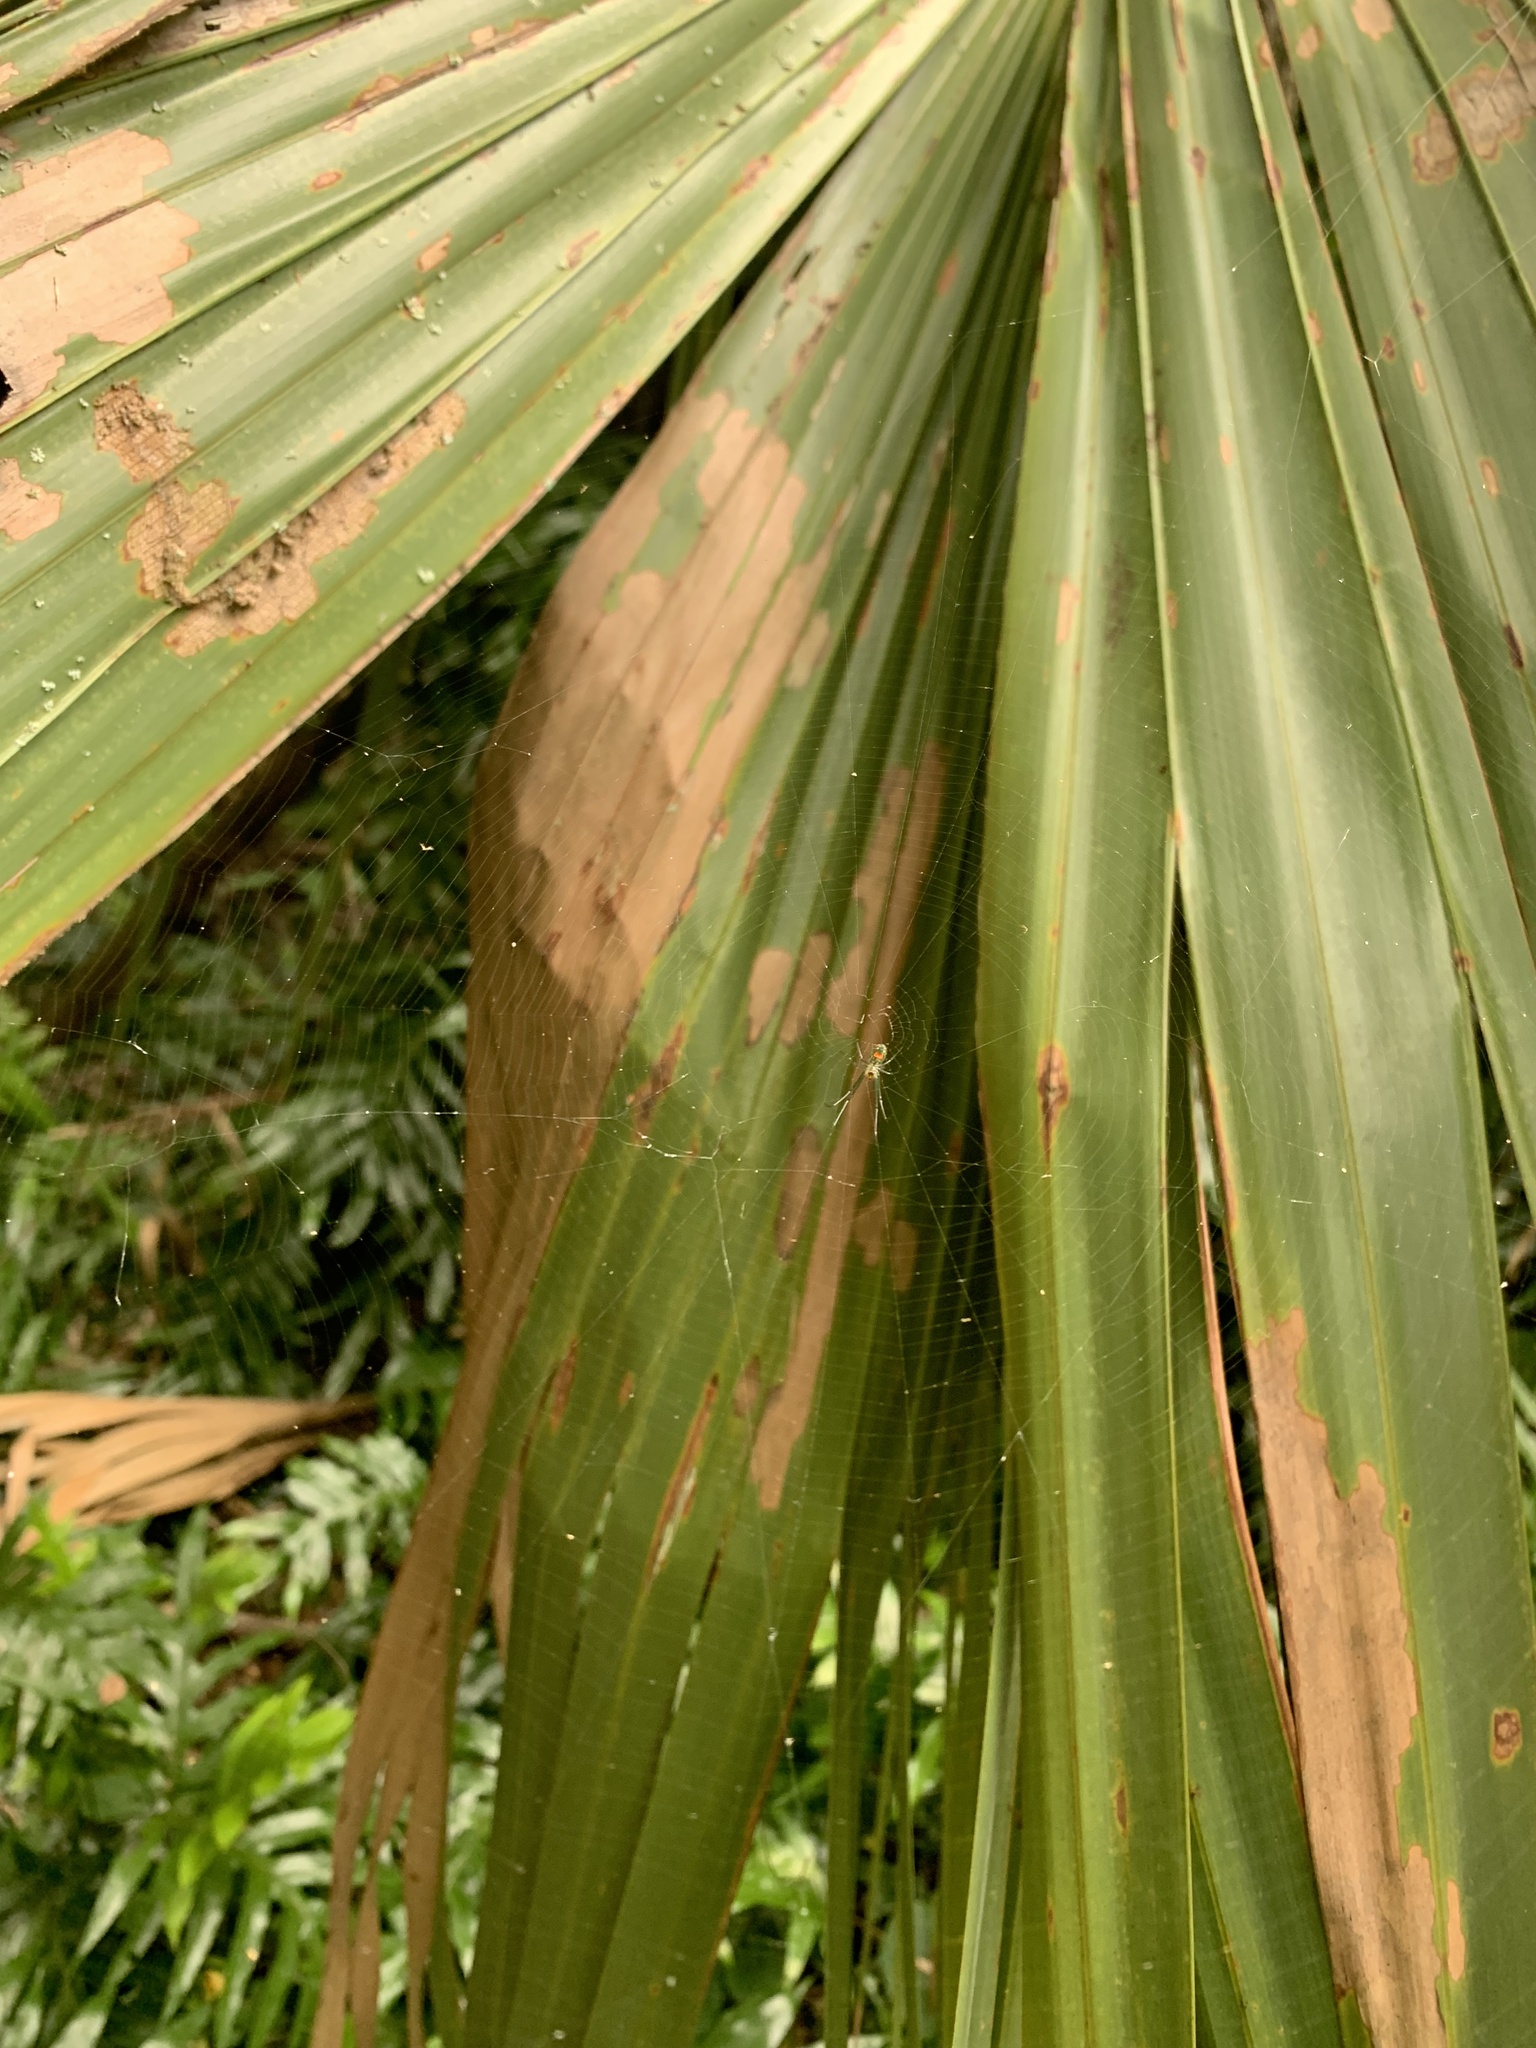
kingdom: Animalia
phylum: Arthropoda
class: Arachnida
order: Araneae
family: Tetragnathidae
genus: Leucauge
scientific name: Leucauge argyrobapta
